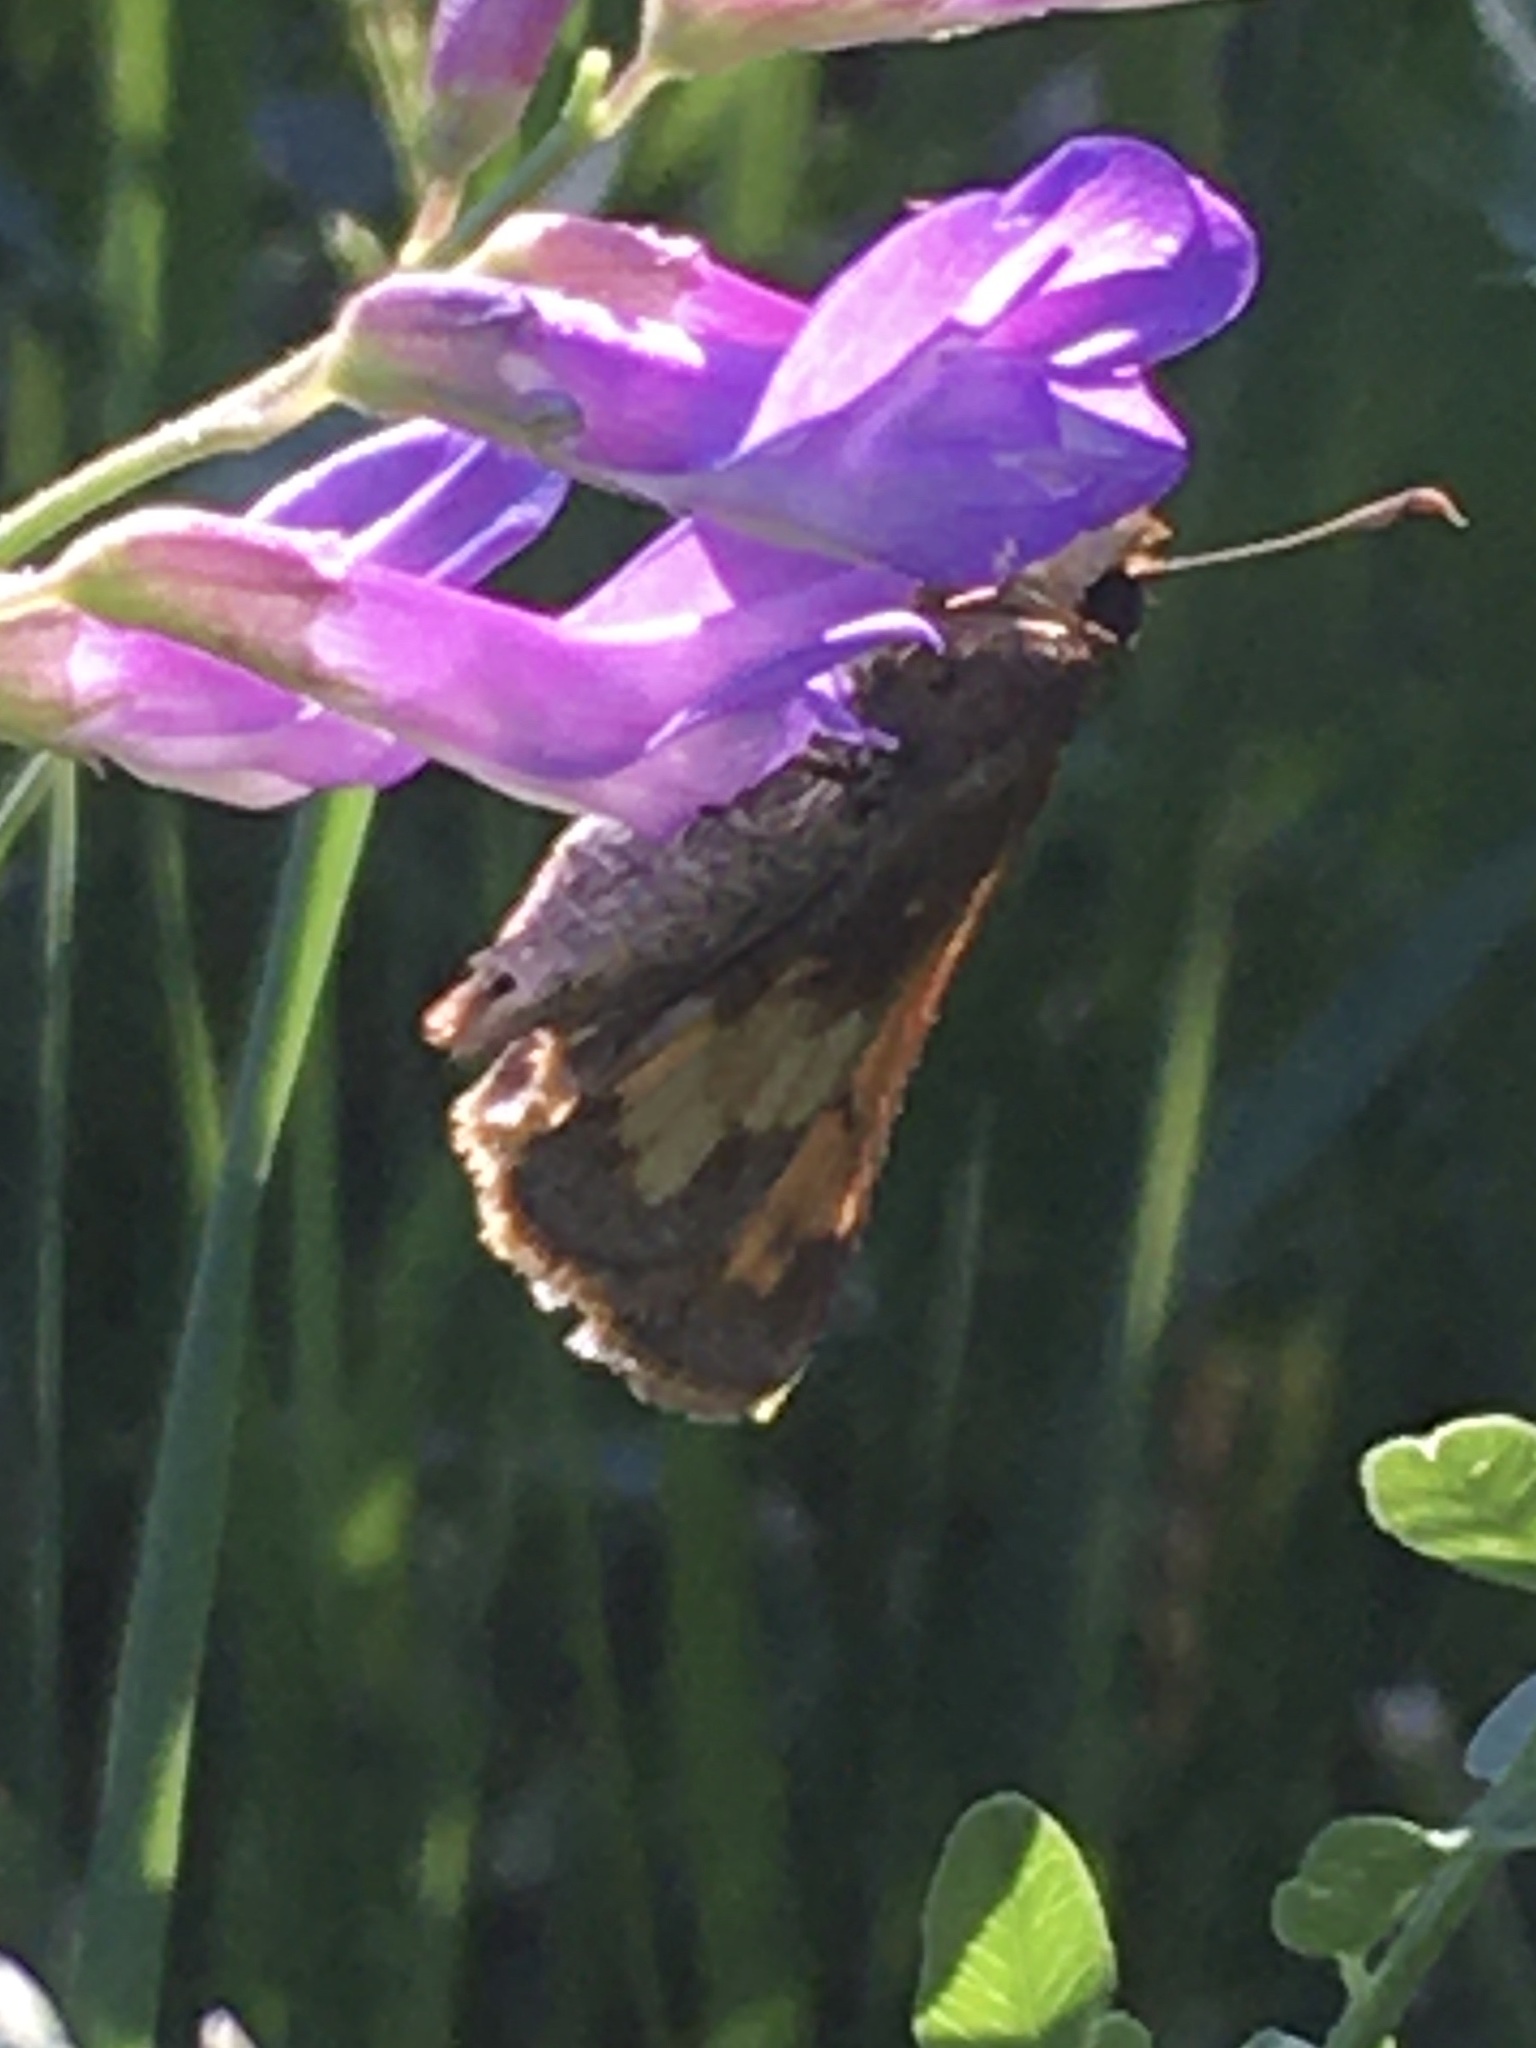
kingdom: Animalia
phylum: Arthropoda
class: Insecta
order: Lepidoptera
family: Hesperiidae
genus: Lon
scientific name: Lon hobomok
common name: Hobomok skipper
